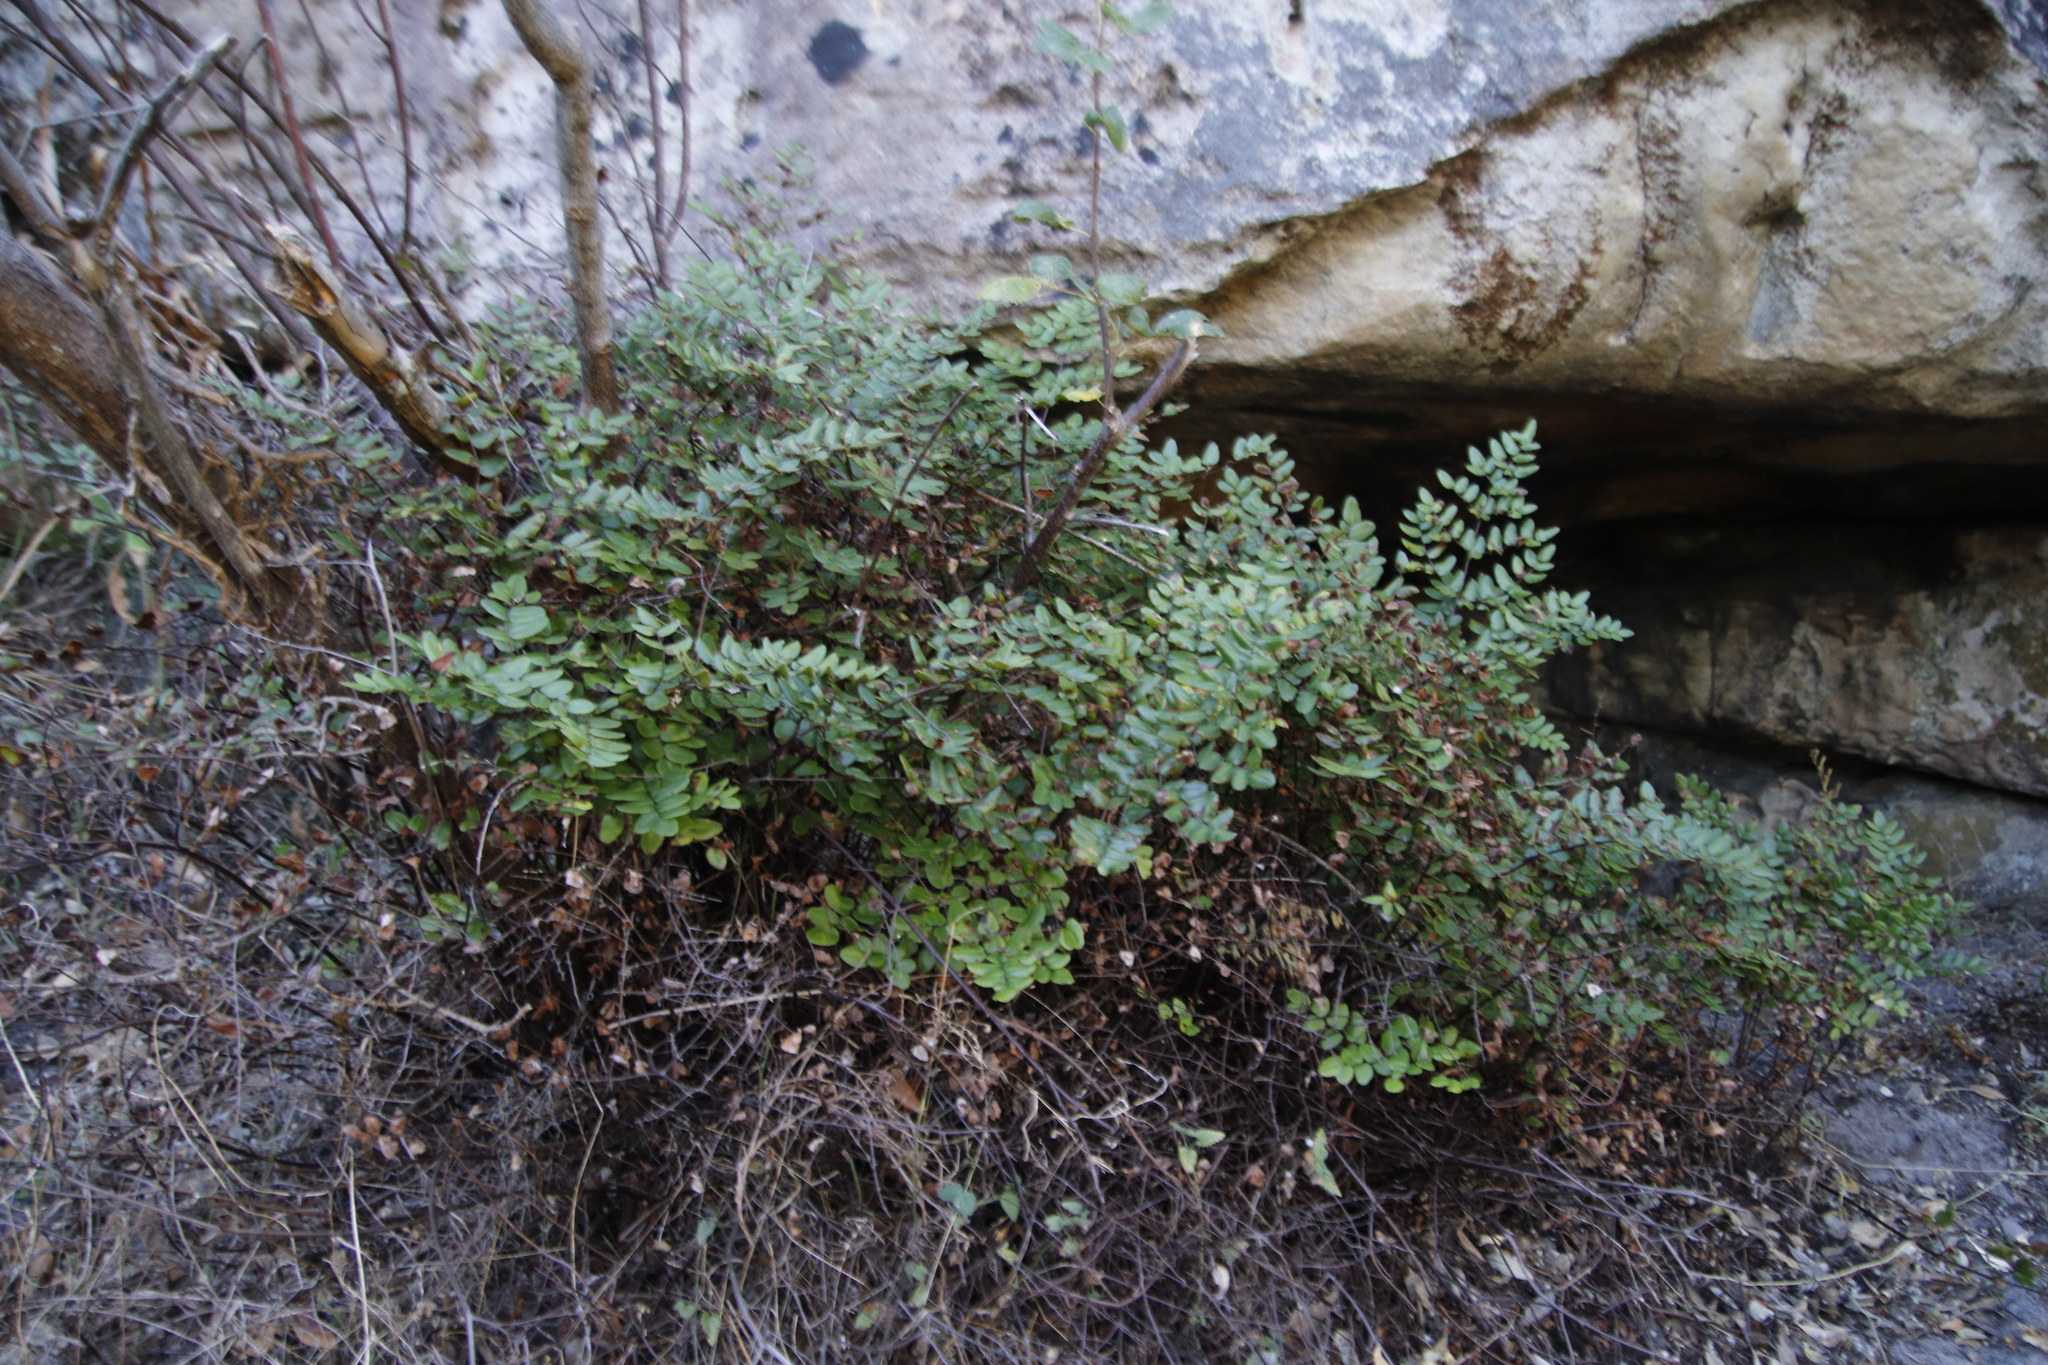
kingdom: Plantae
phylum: Tracheophyta
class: Polypodiopsida
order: Polypodiales
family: Pteridaceae
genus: Pellaea
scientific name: Pellaea pteroides
